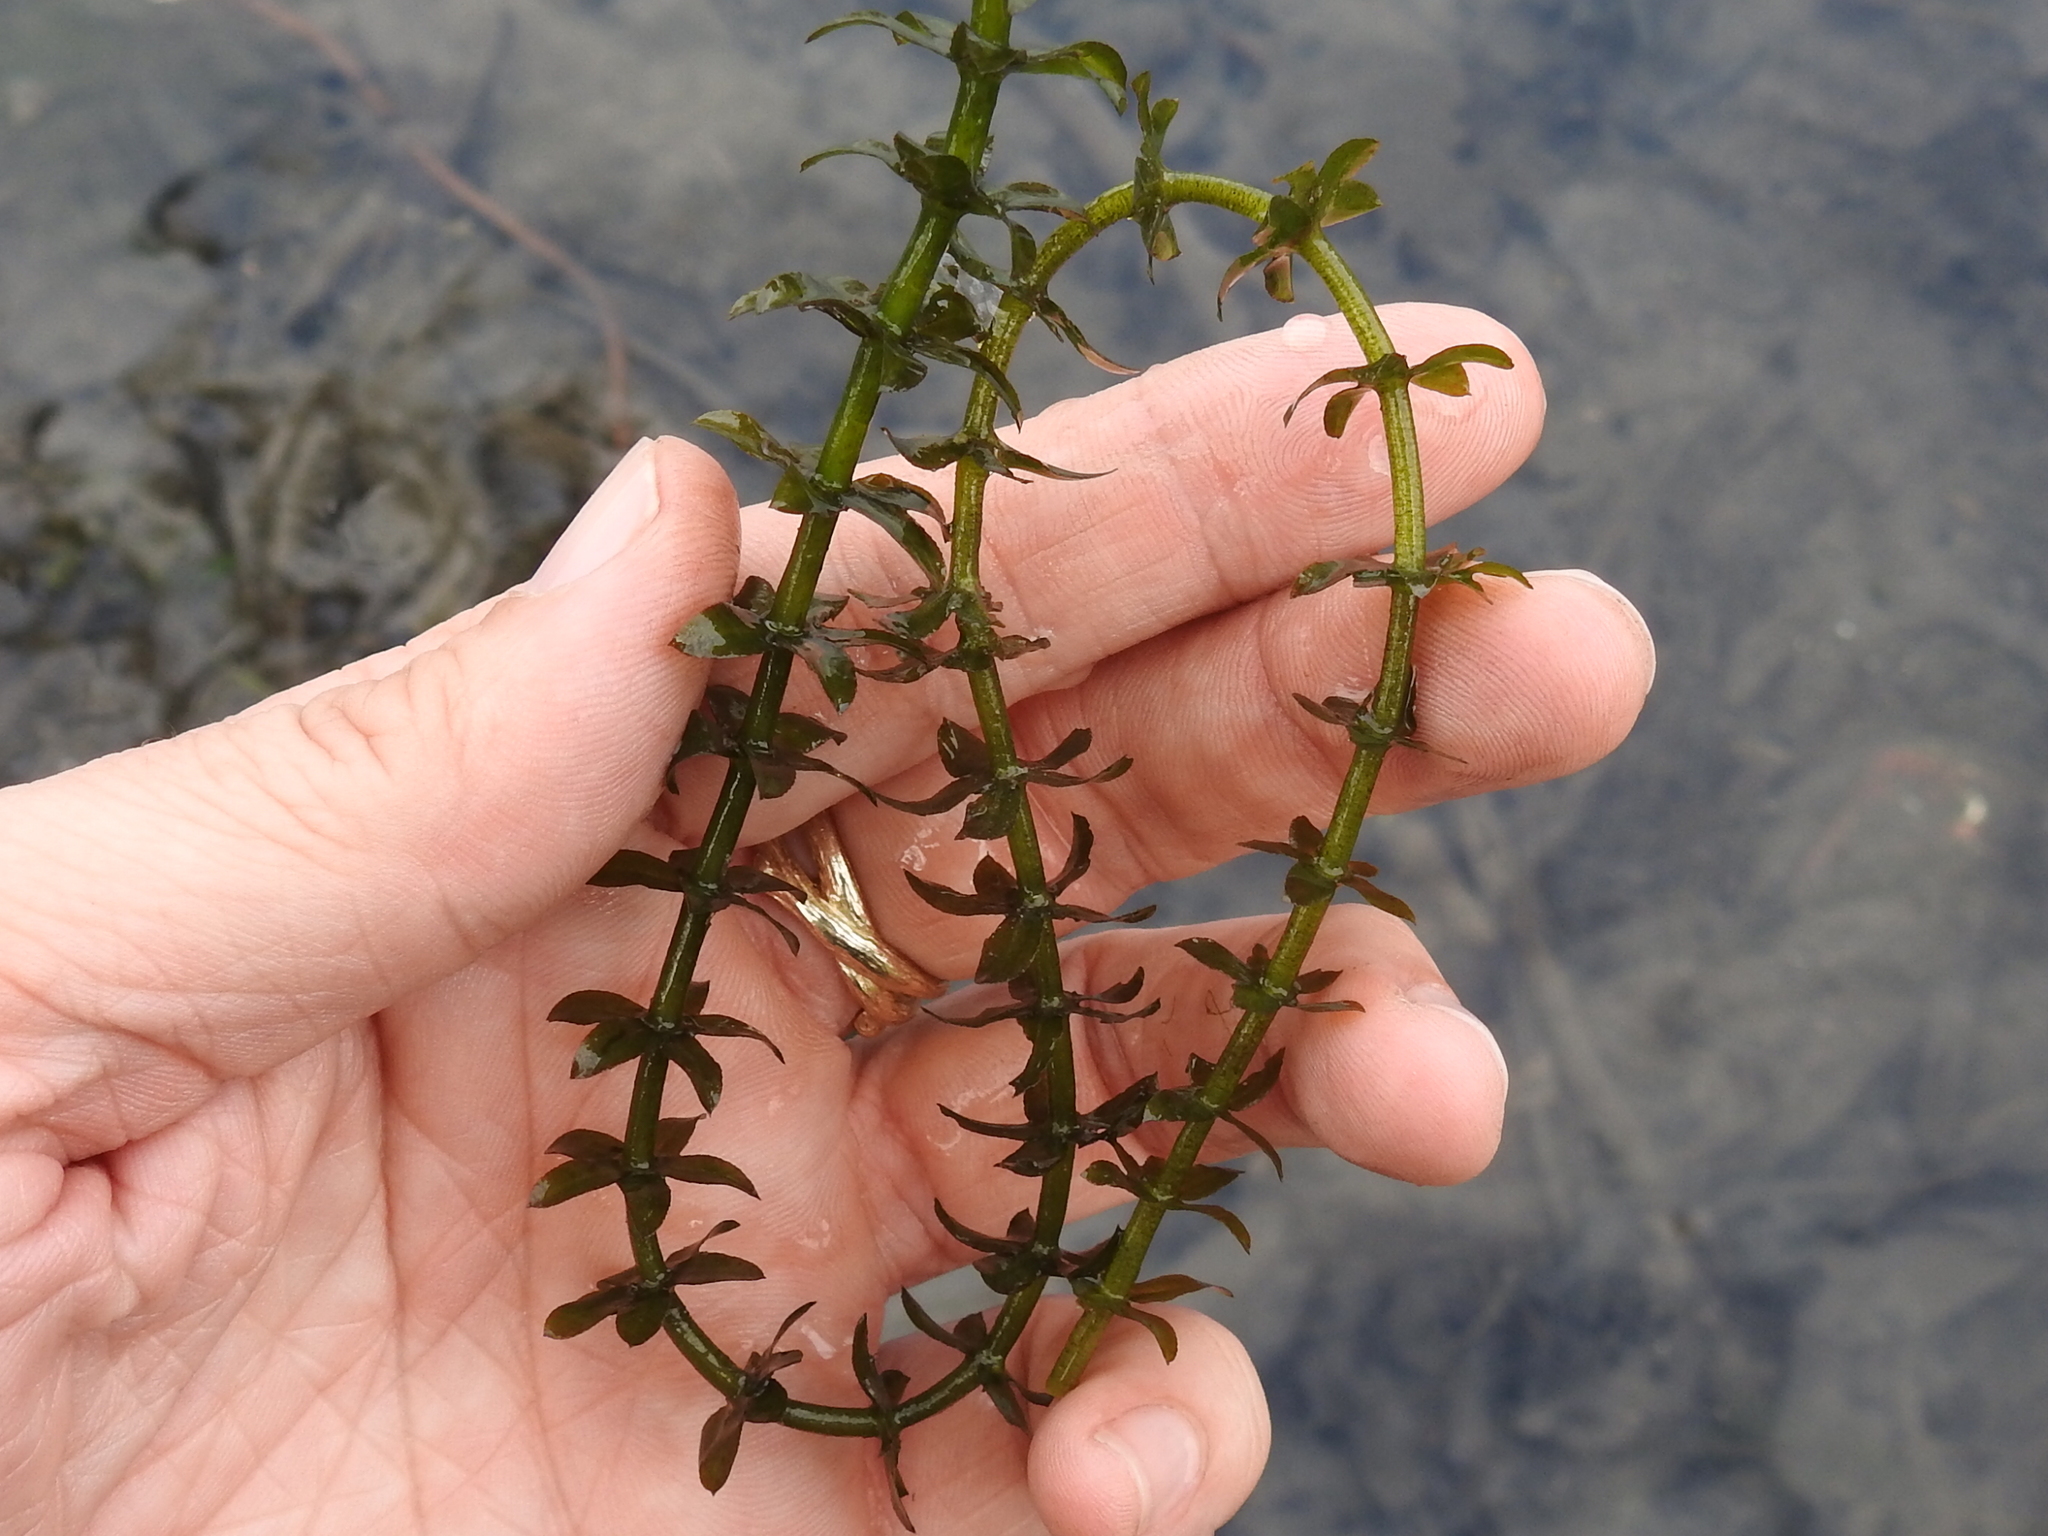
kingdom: Plantae
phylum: Tracheophyta
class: Liliopsida
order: Alismatales
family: Hydrocharitaceae
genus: Hydrilla
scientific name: Hydrilla verticillata
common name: Florida-elodea
